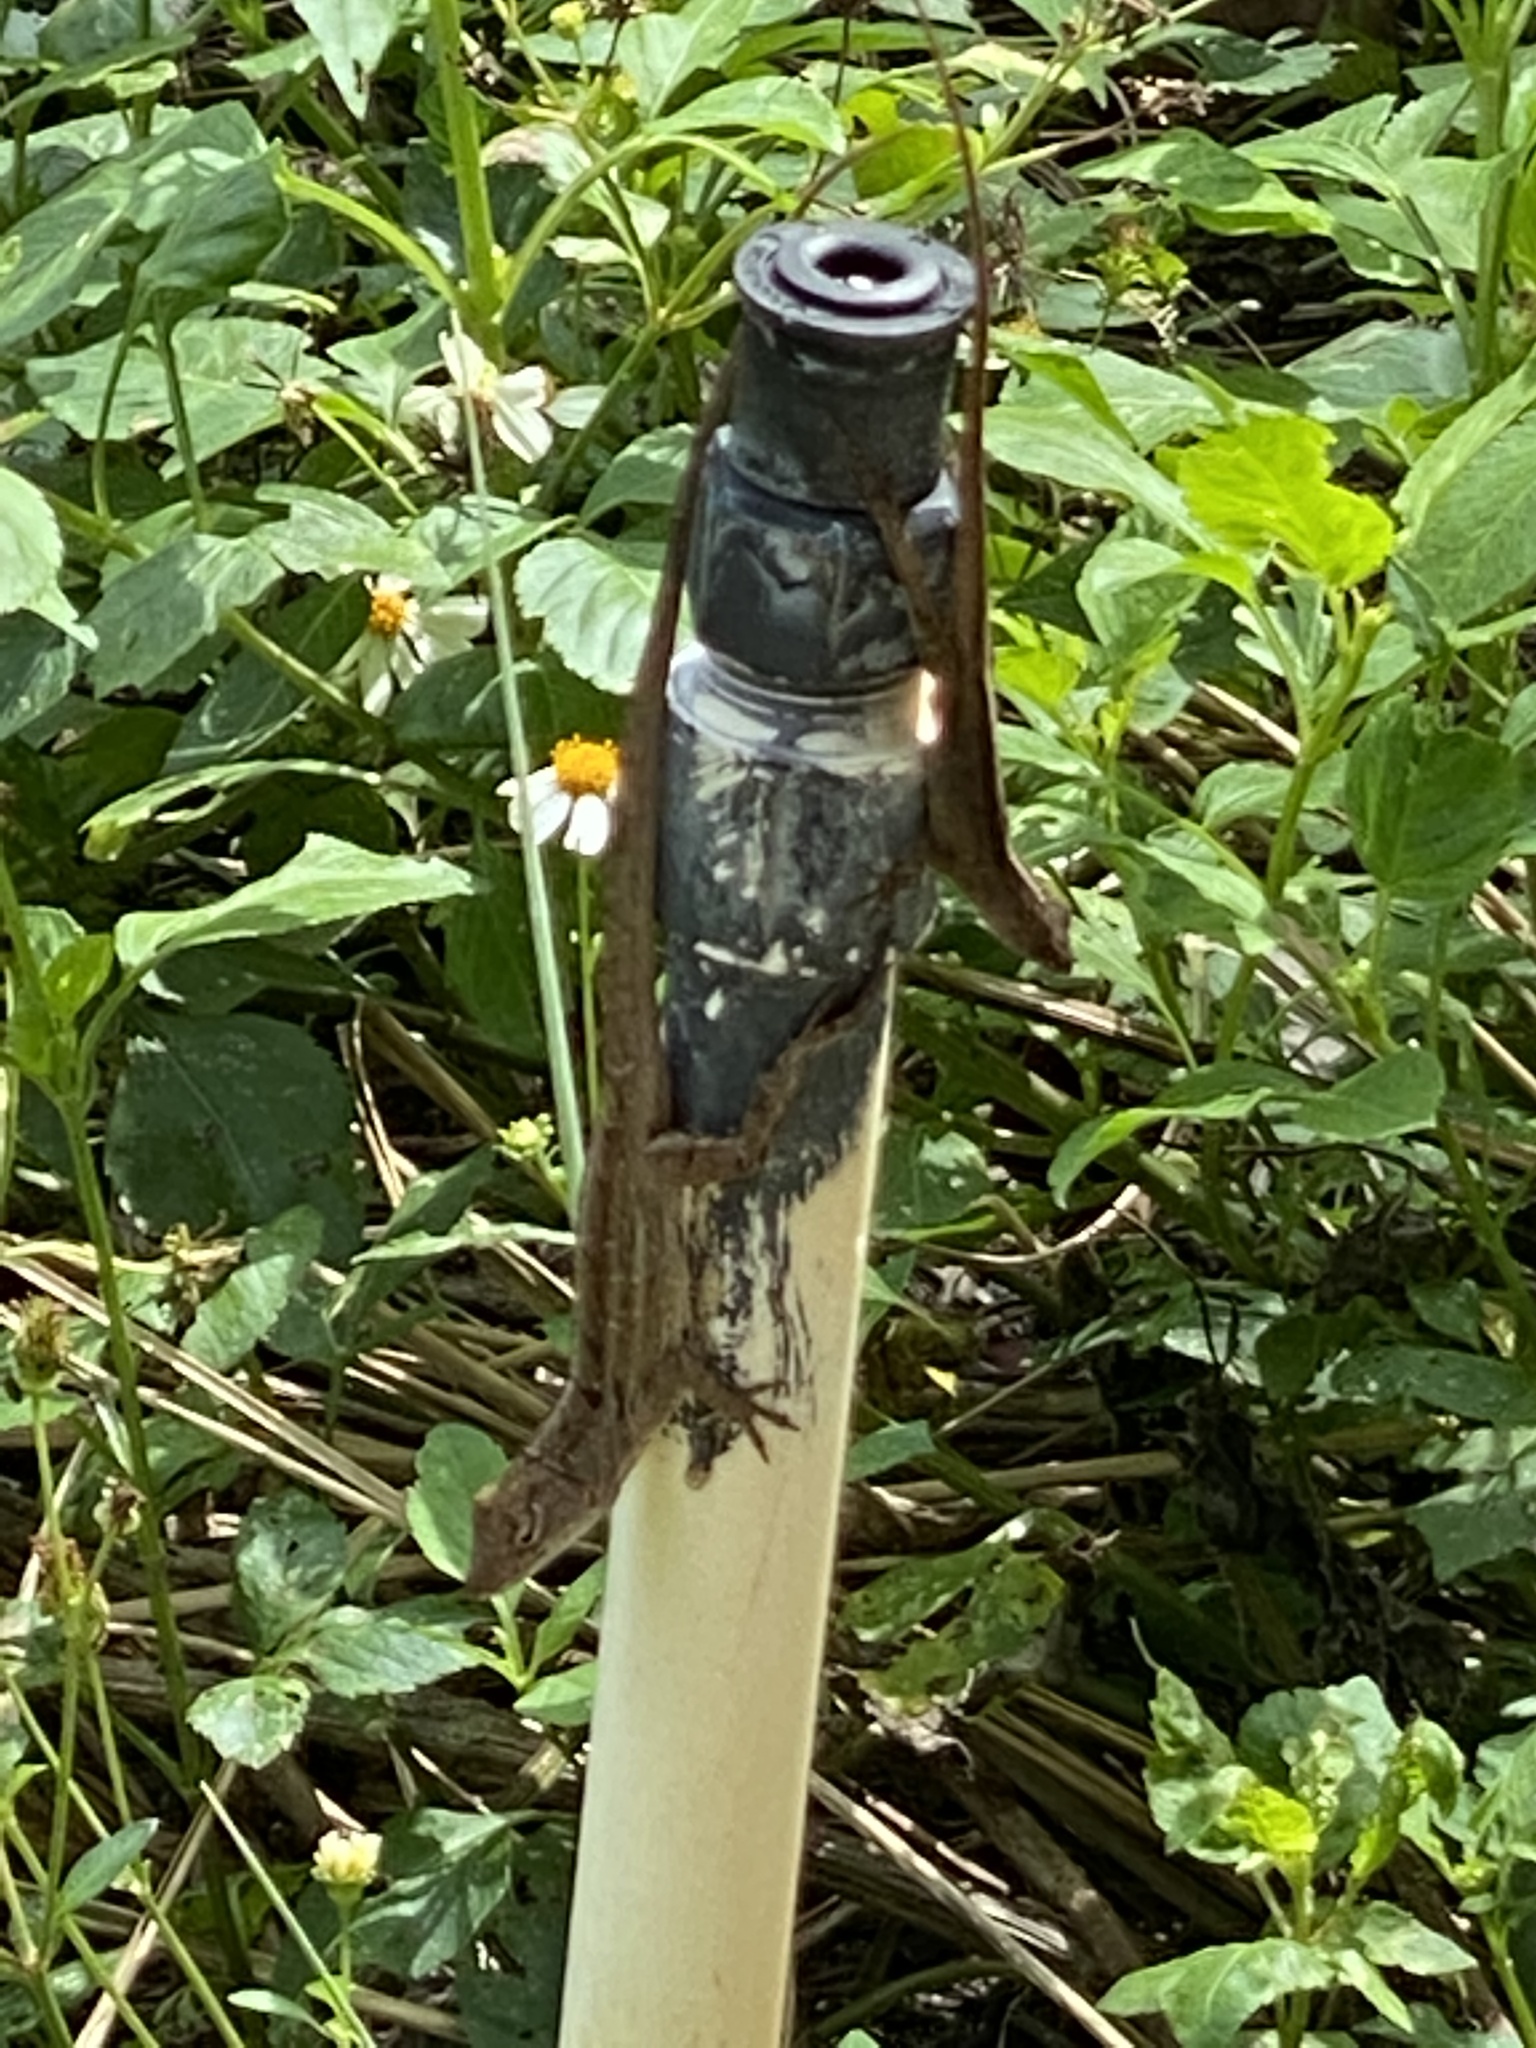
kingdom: Animalia
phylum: Chordata
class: Squamata
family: Dactyloidae
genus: Anolis
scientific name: Anolis sagrei
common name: Brown anole
